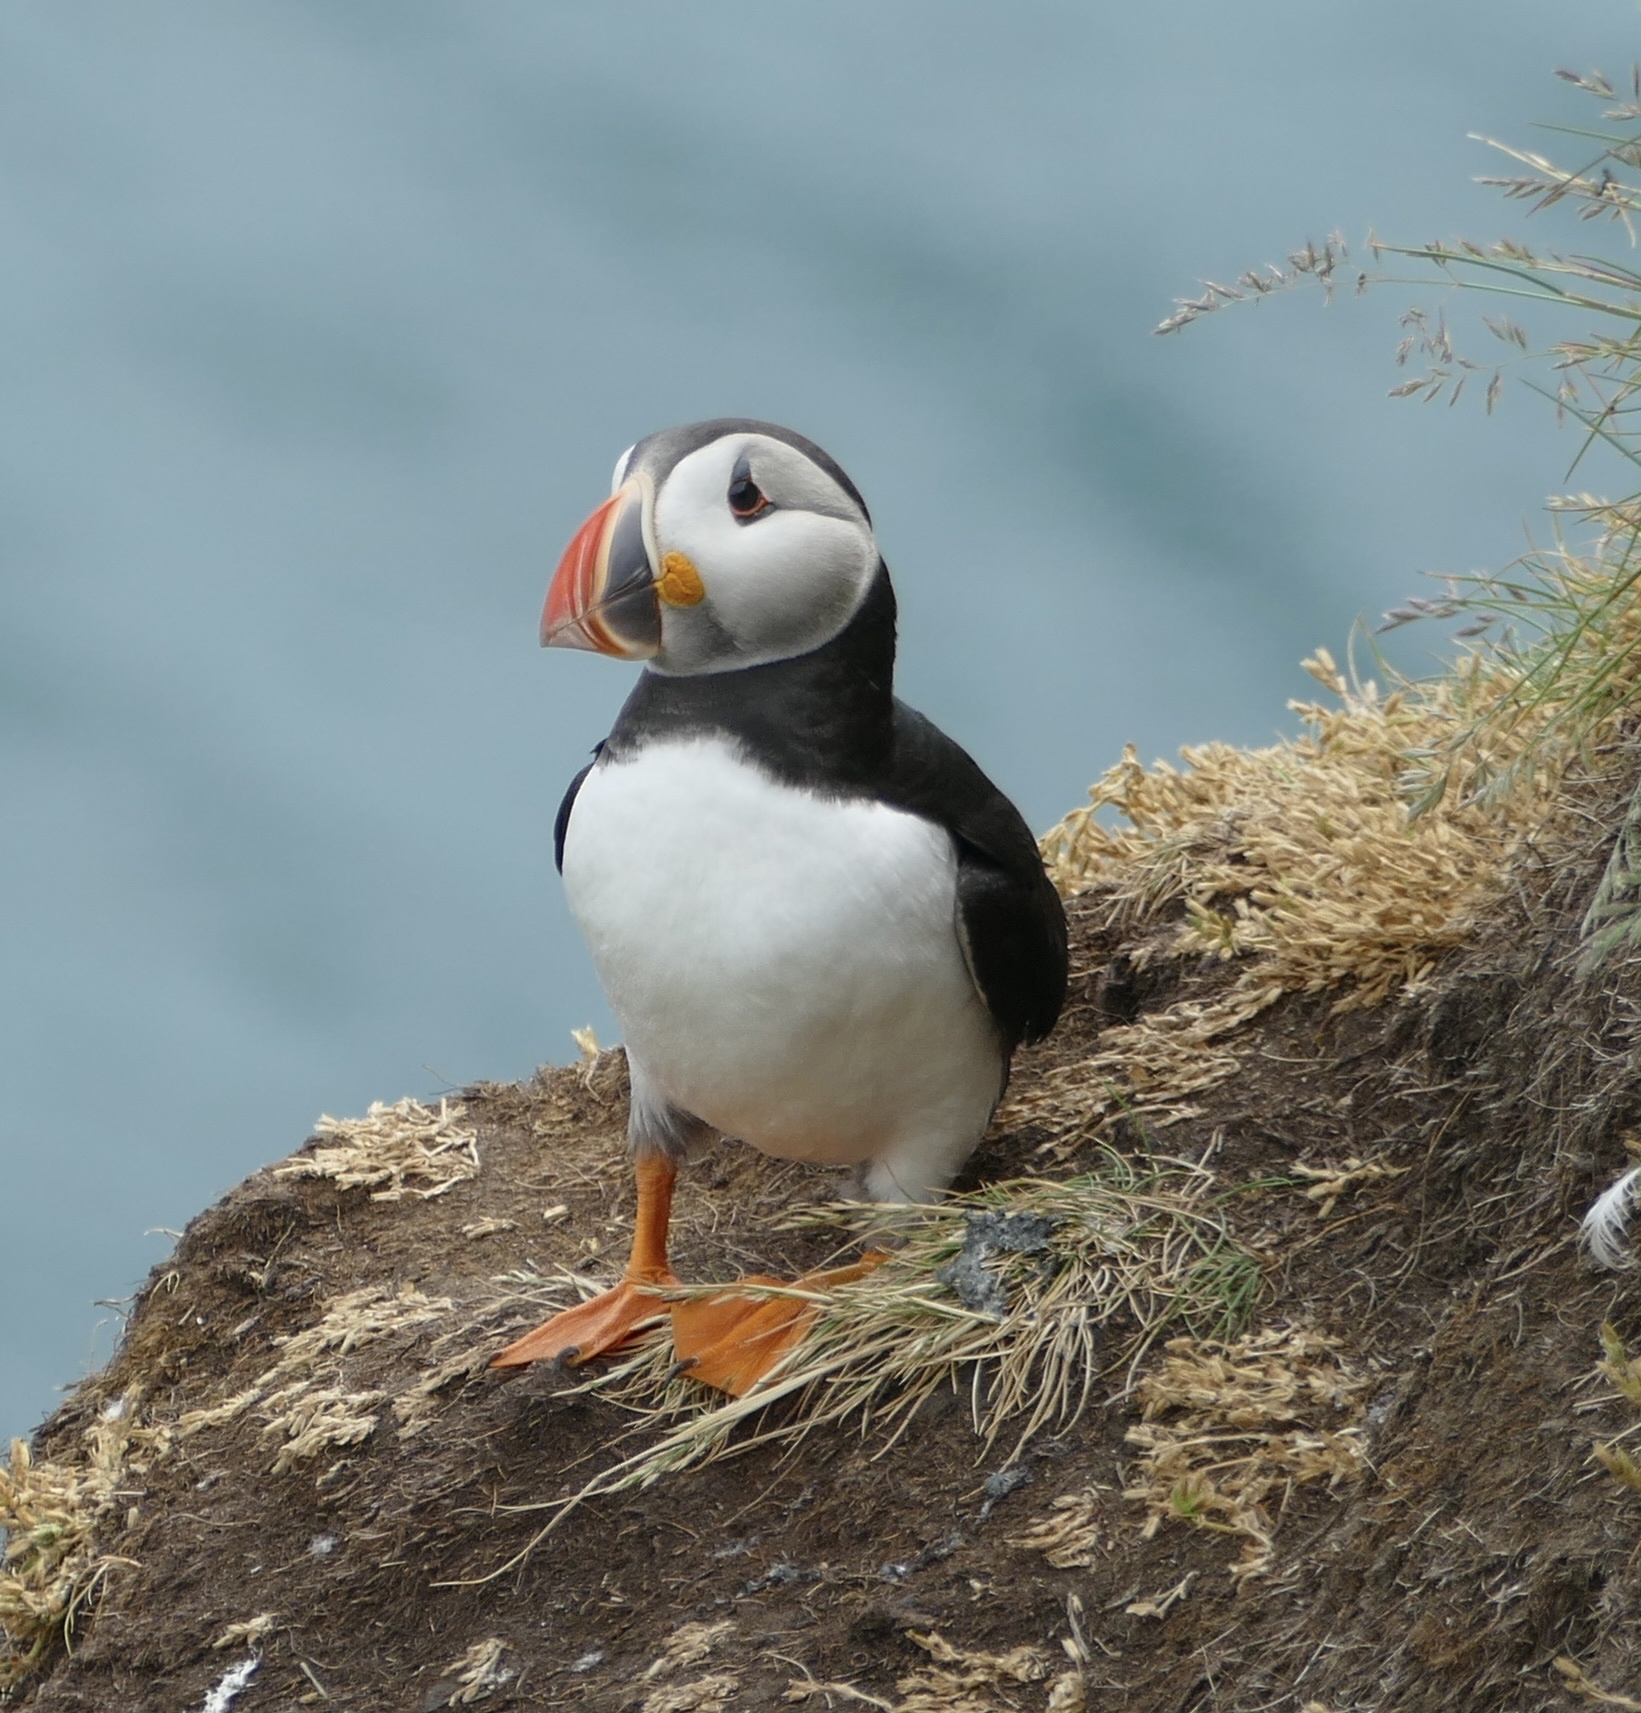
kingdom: Animalia
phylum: Chordata
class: Aves
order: Charadriiformes
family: Alcidae
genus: Fratercula
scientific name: Fratercula arctica
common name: Atlantic puffin
